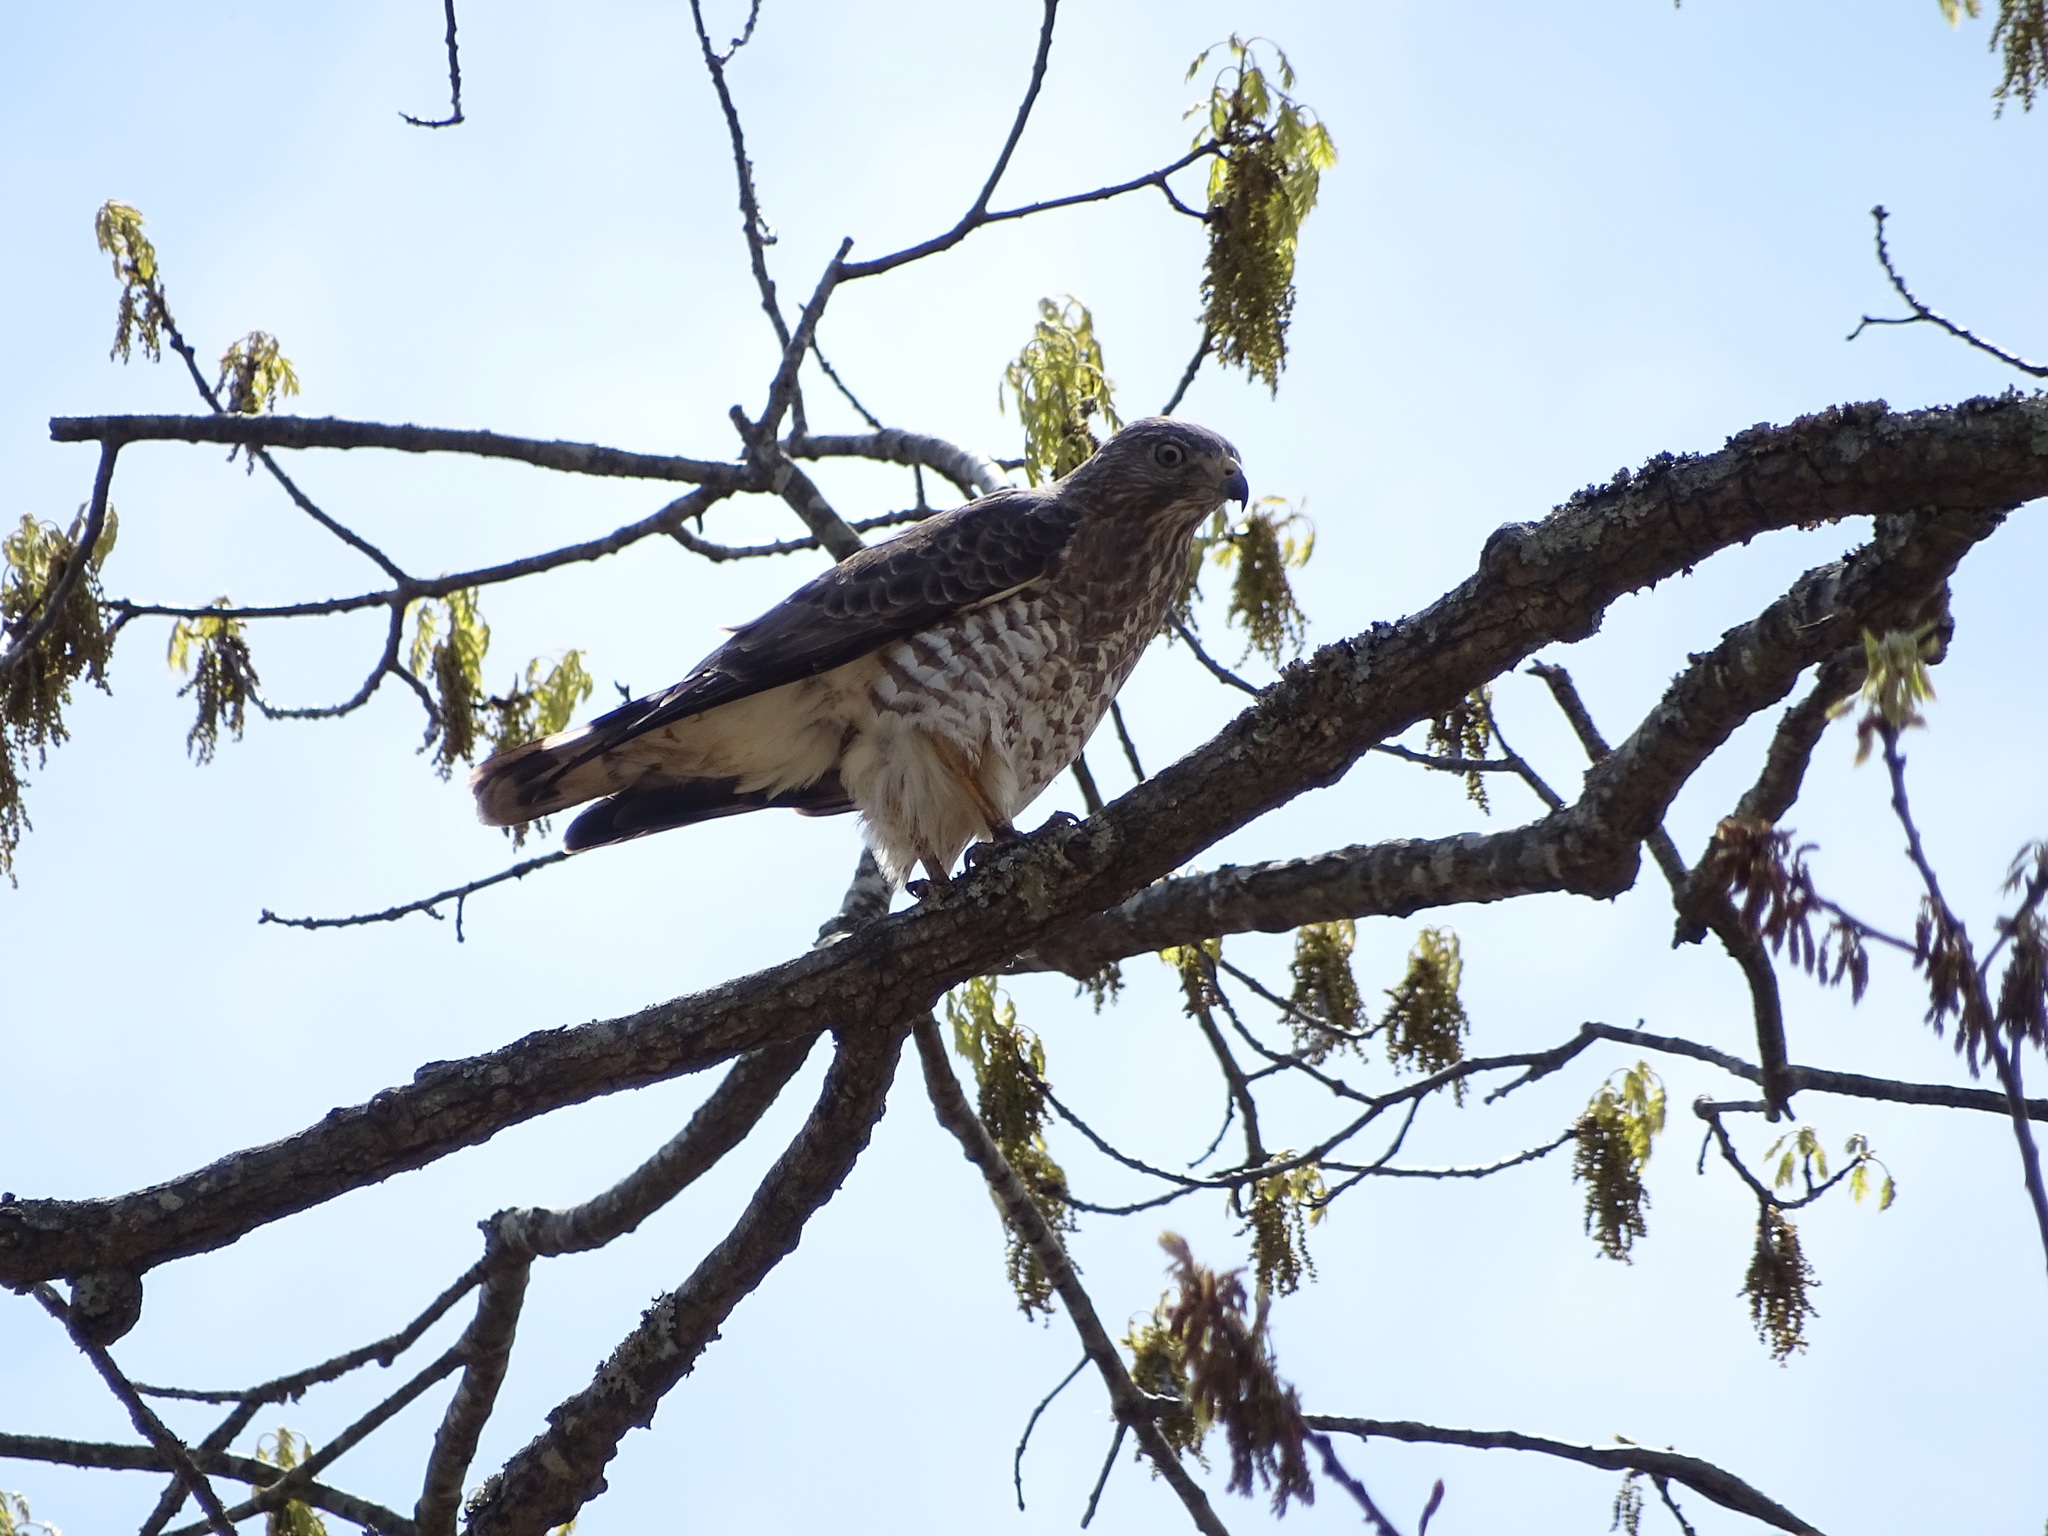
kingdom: Animalia
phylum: Chordata
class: Aves
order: Accipitriformes
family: Accipitridae
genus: Buteo
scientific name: Buteo platypterus
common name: Broad-winged hawk
